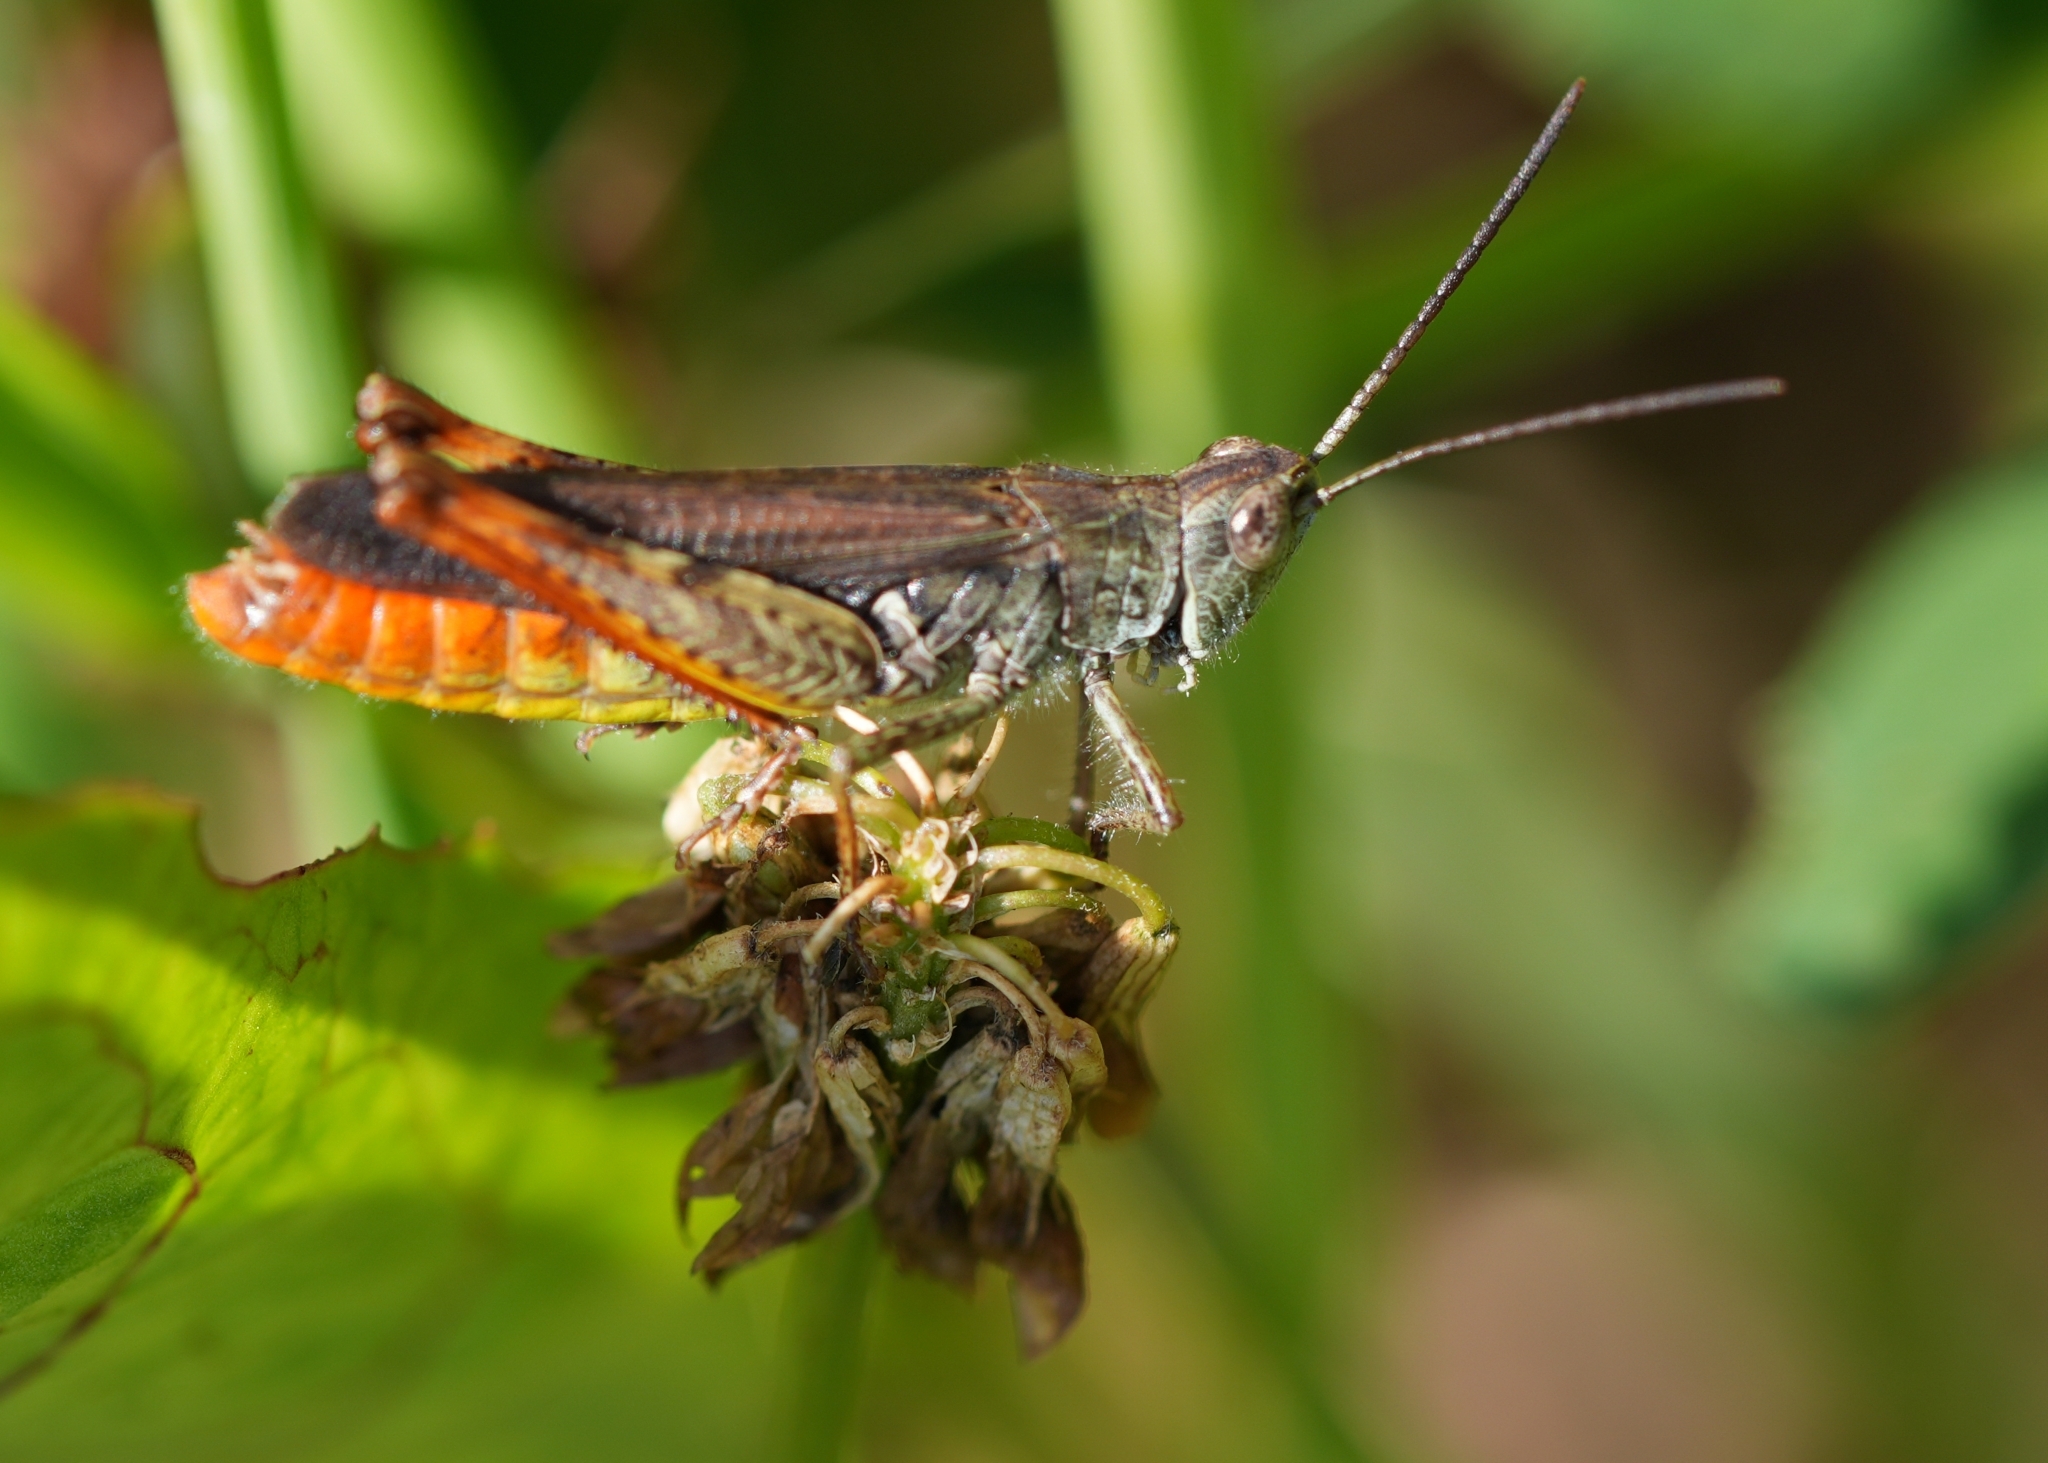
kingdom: Animalia
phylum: Arthropoda
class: Insecta
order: Orthoptera
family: Acrididae
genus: Chorthippus
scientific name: Chorthippus brunneus
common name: Field grasshopper
